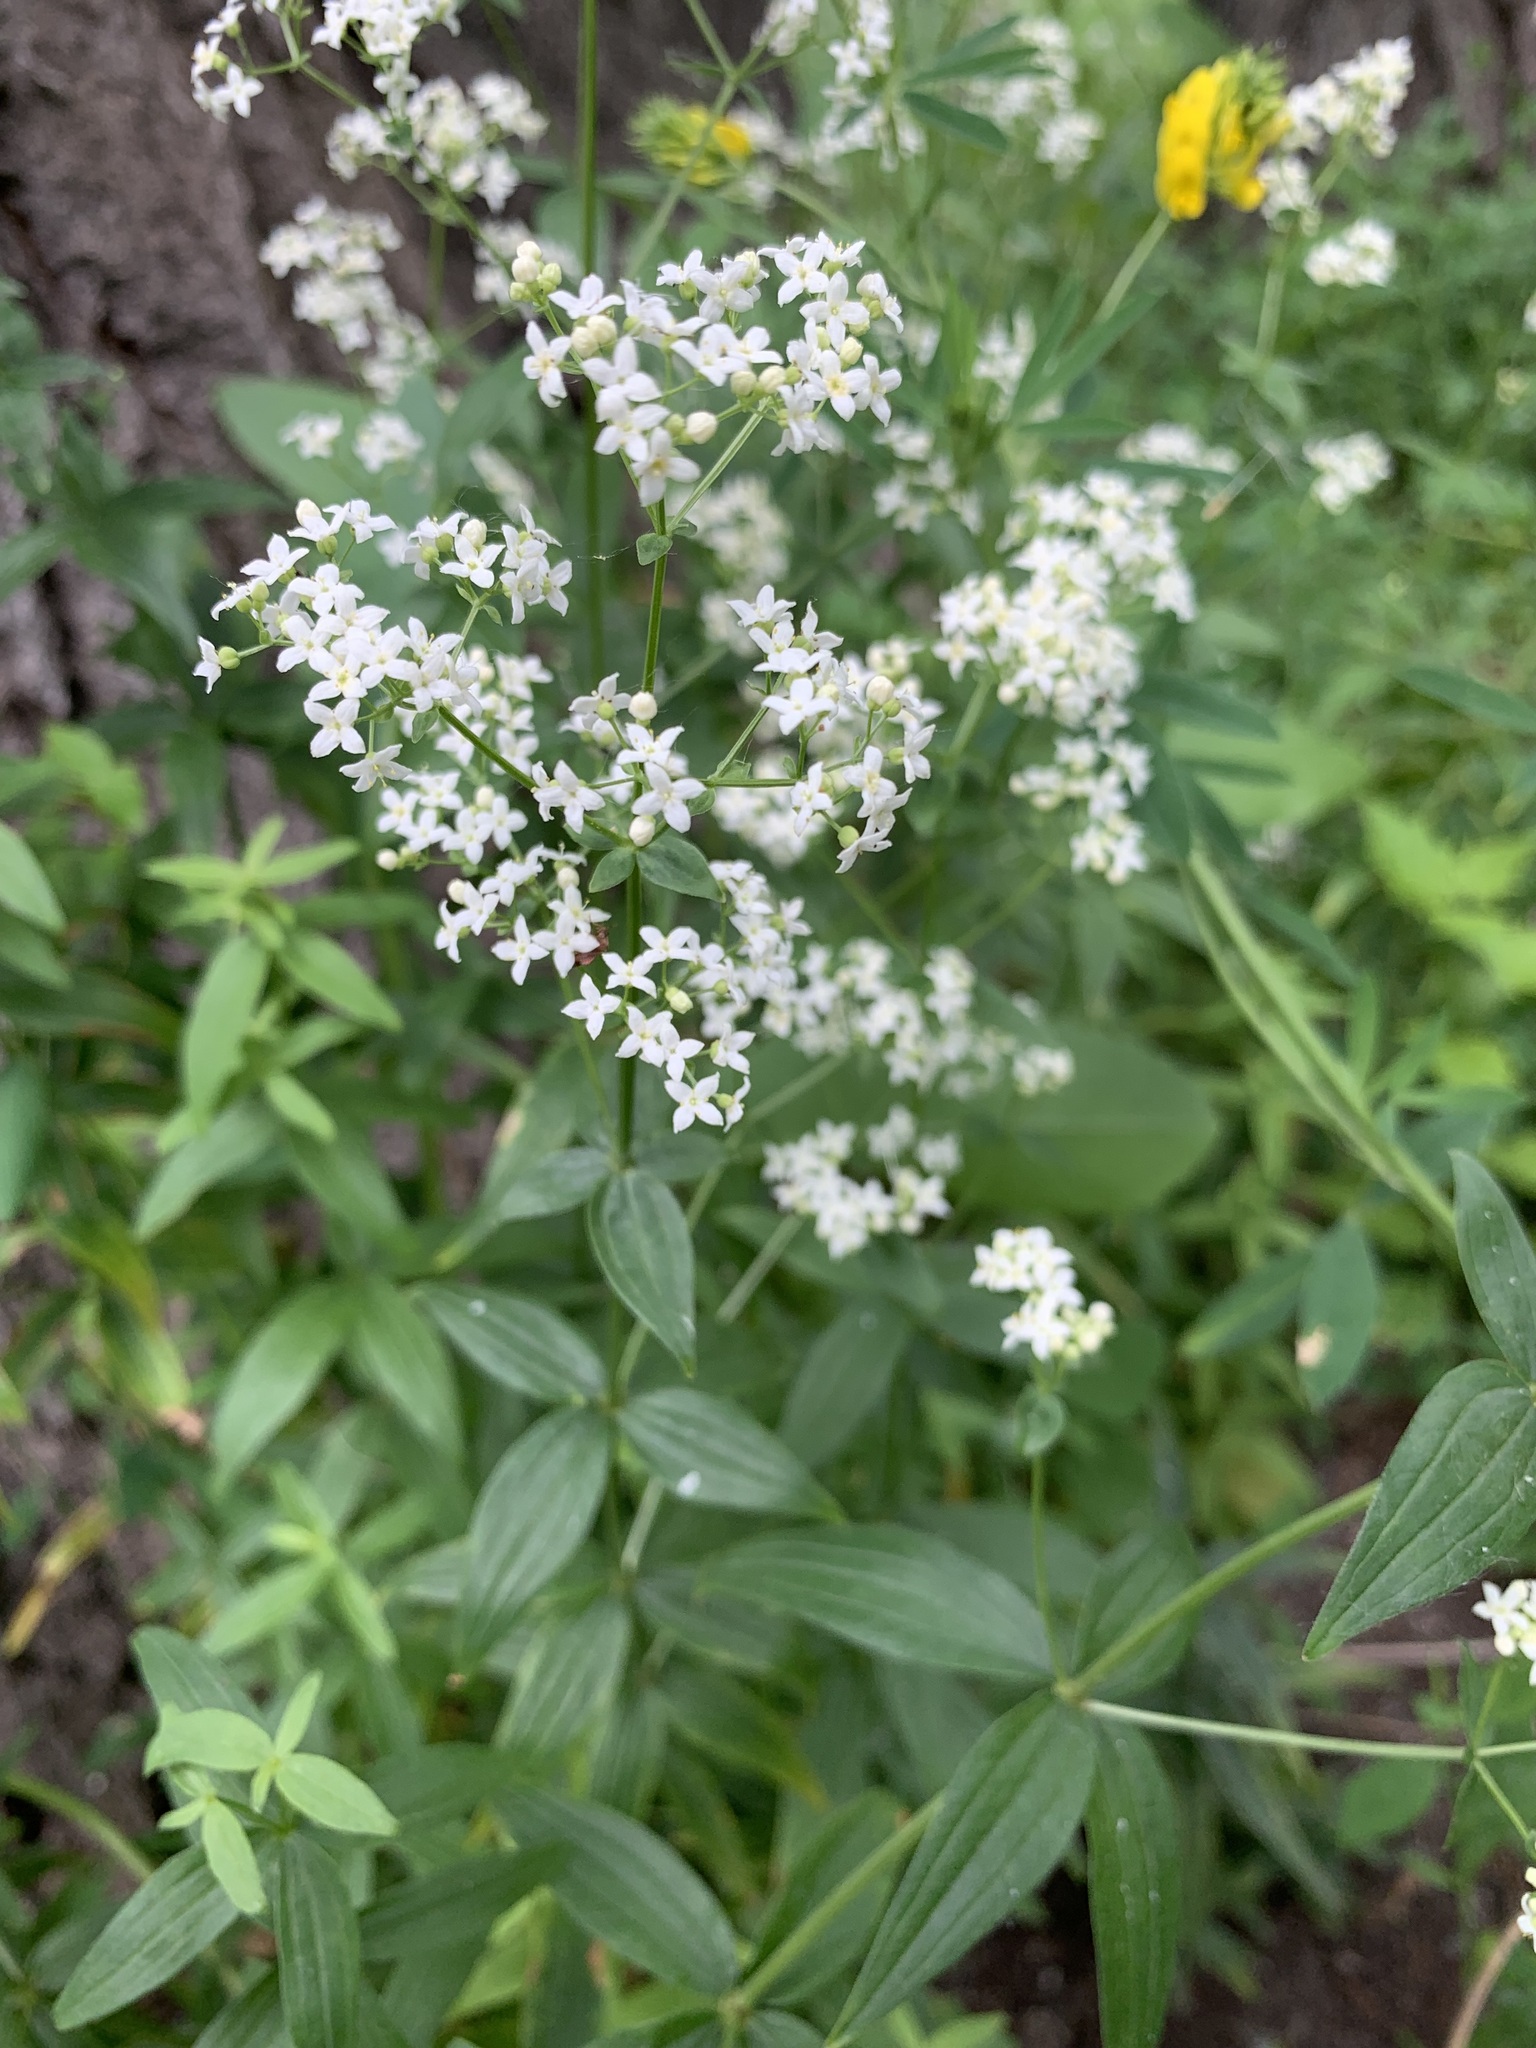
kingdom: Plantae
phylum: Tracheophyta
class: Magnoliopsida
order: Gentianales
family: Rubiaceae
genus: Galium
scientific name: Galium rubioides
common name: European bedstraw
